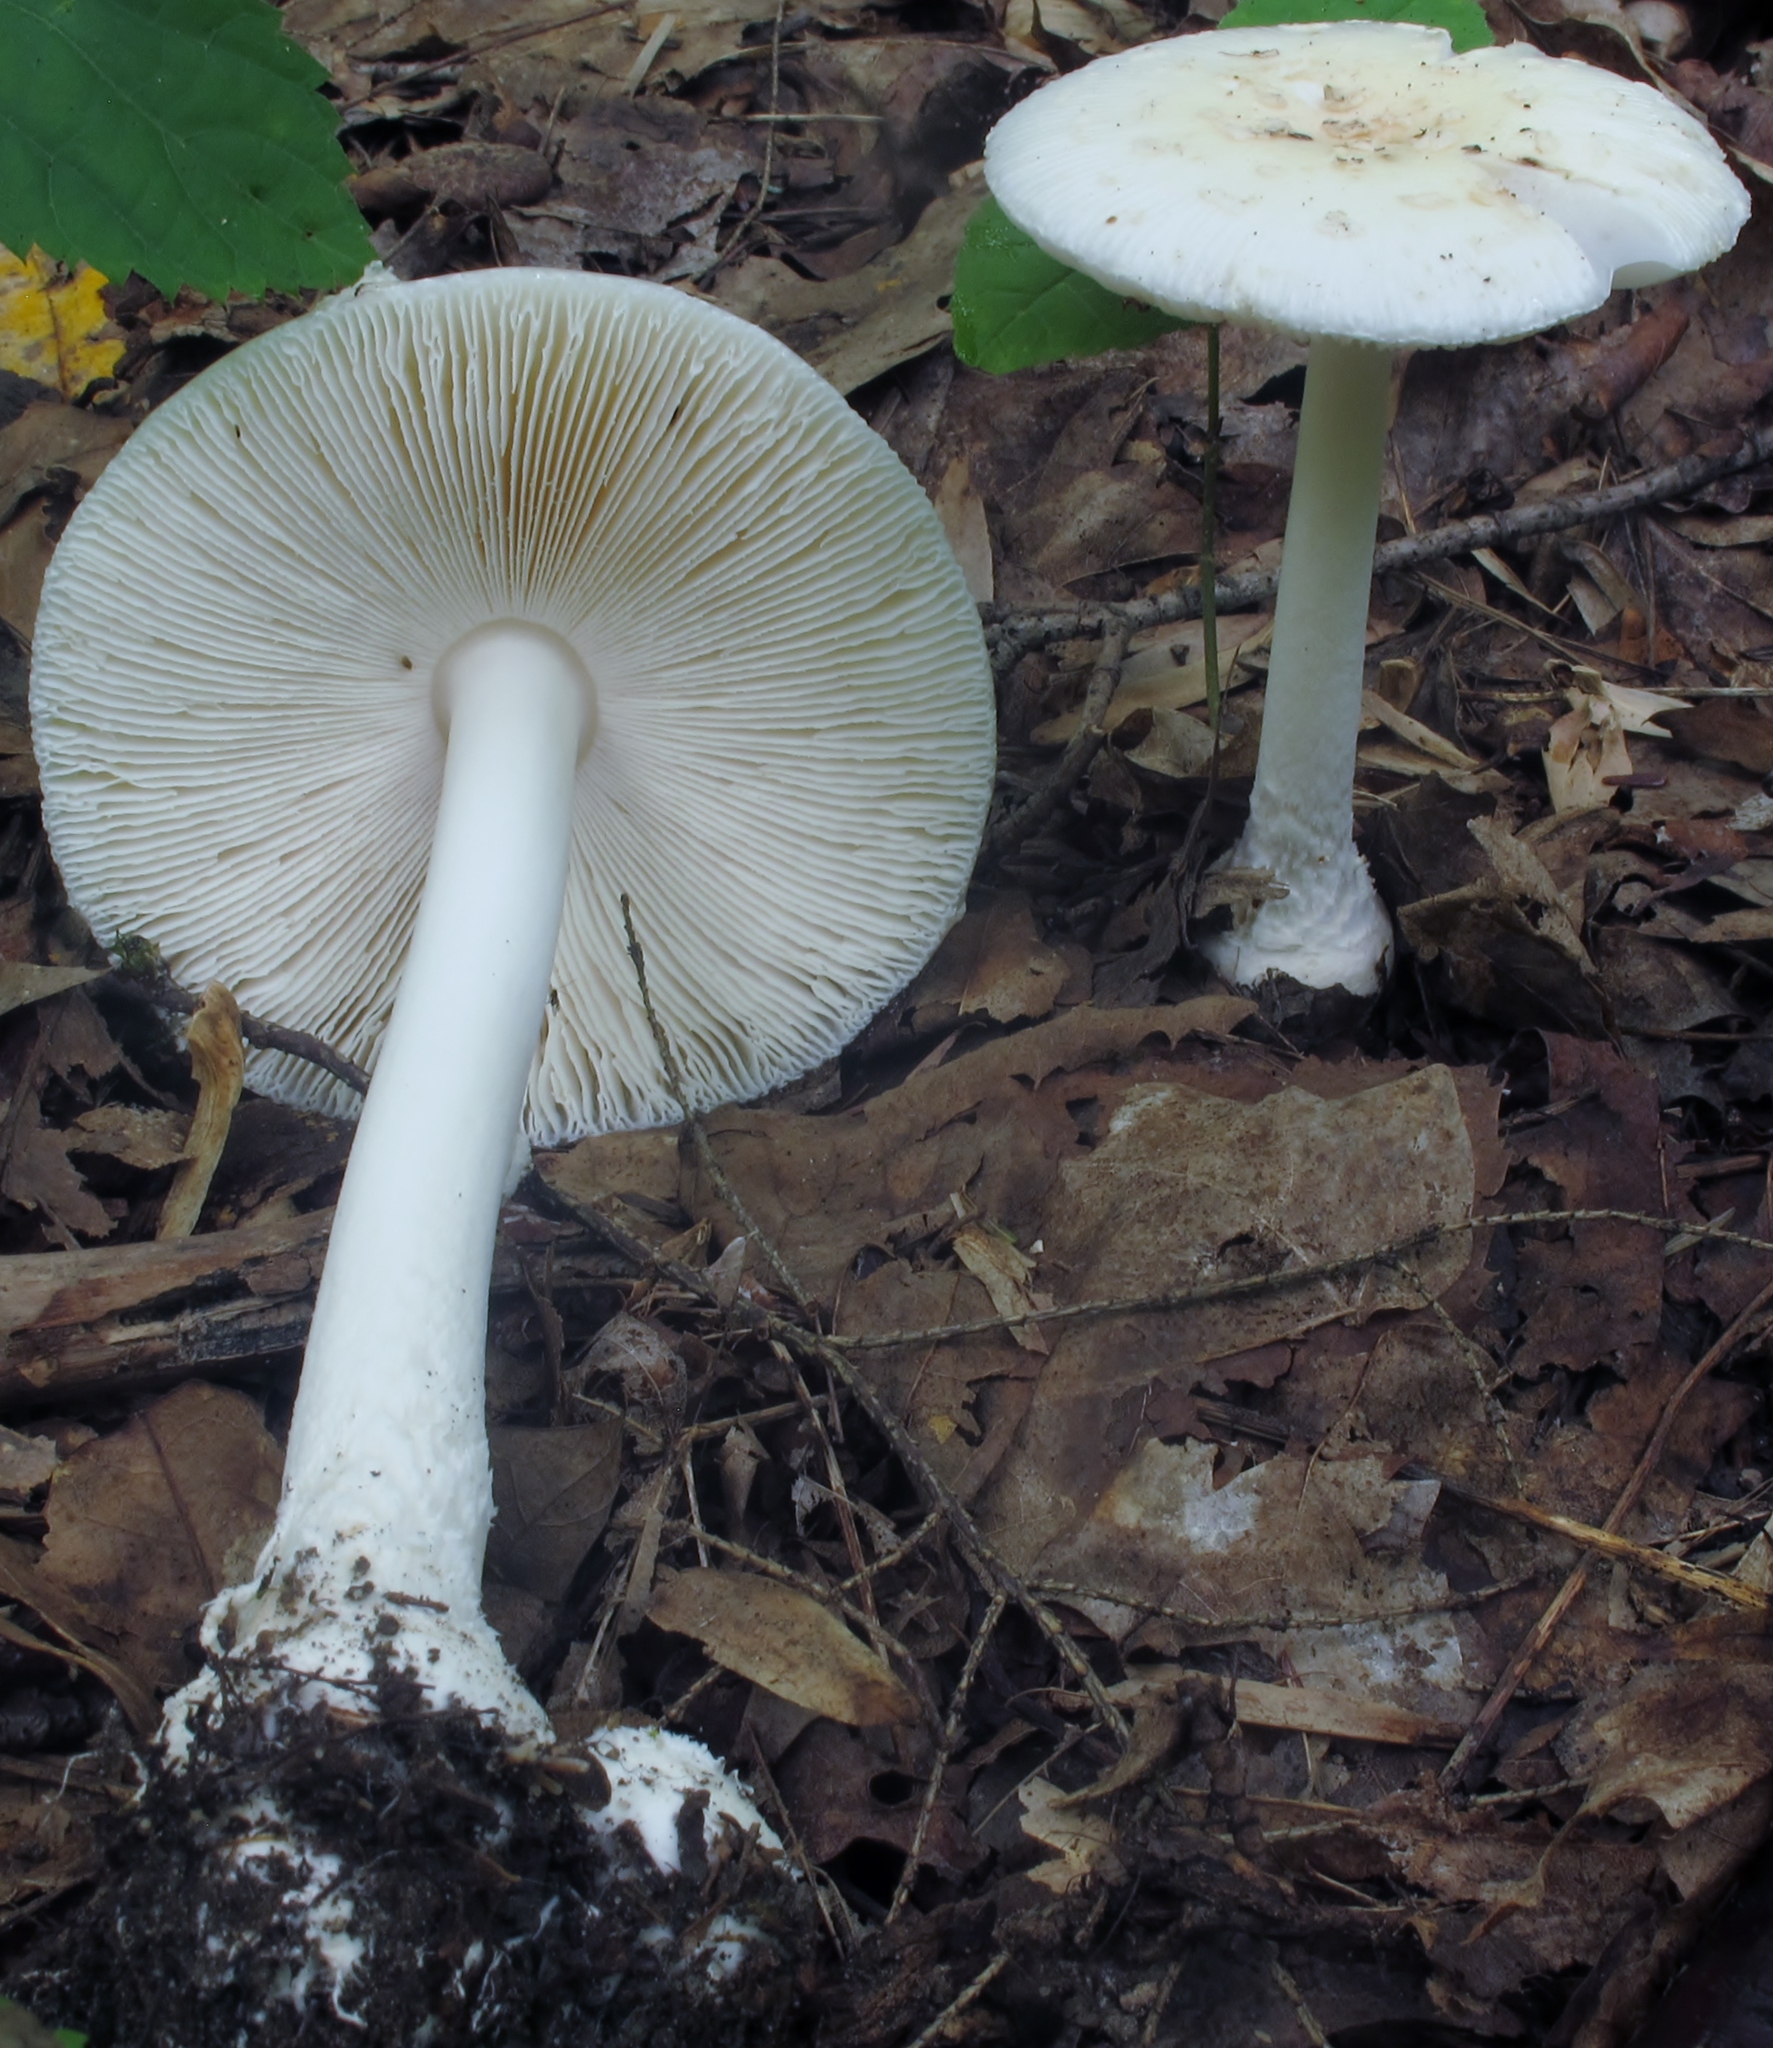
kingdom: Fungi
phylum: Basidiomycota
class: Agaricomycetes
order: Agaricales
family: Amanitaceae
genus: Amanita
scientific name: Amanita albocreata
